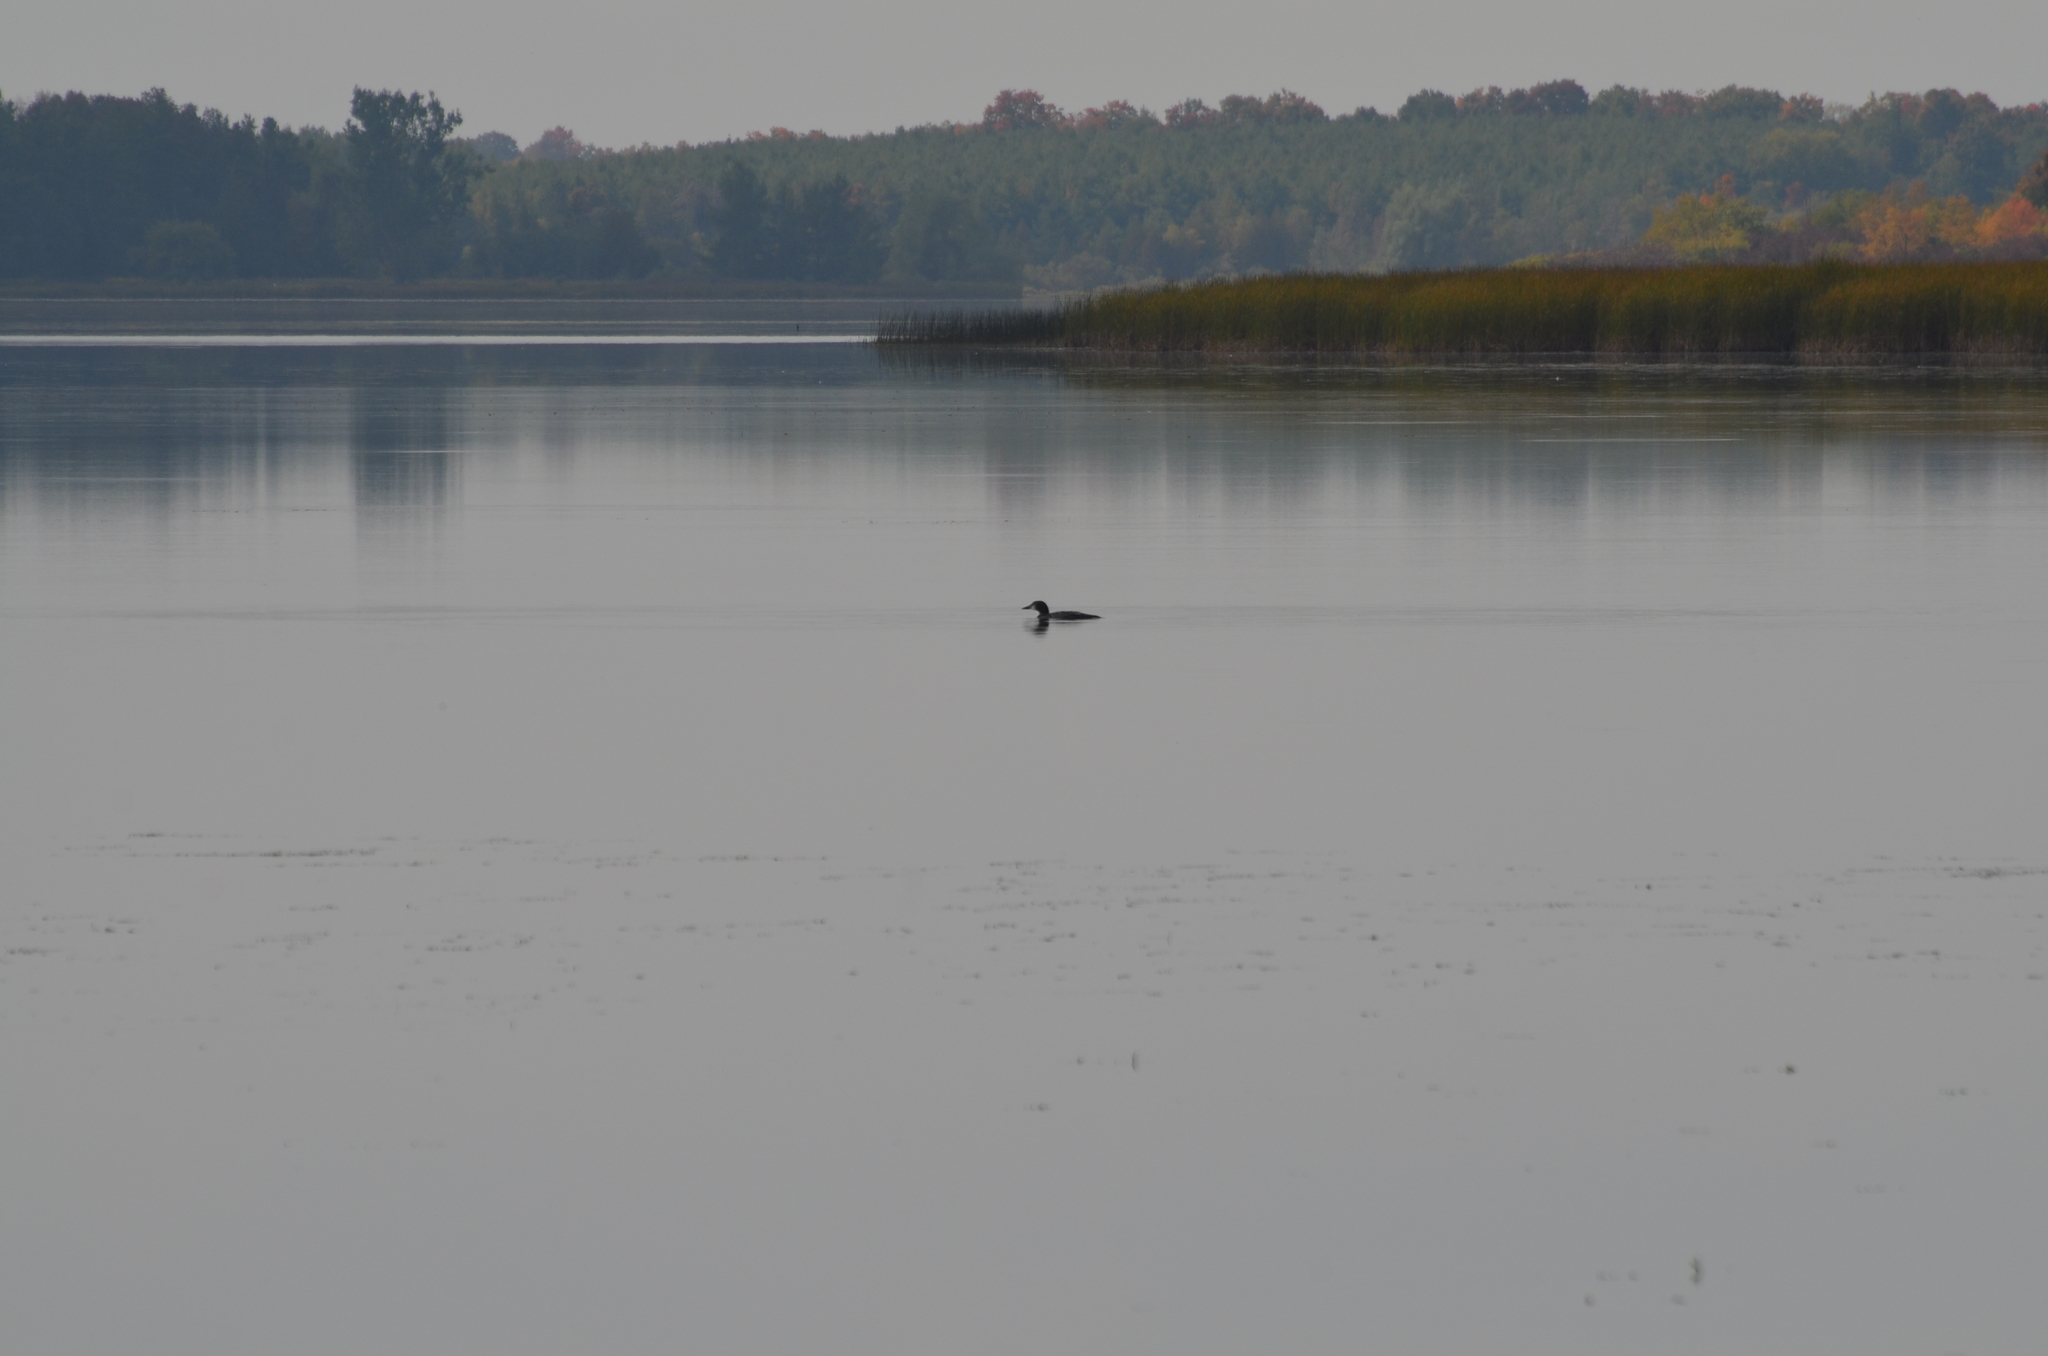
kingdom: Animalia
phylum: Chordata
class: Aves
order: Gaviiformes
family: Gaviidae
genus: Gavia
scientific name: Gavia immer
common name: Common loon
